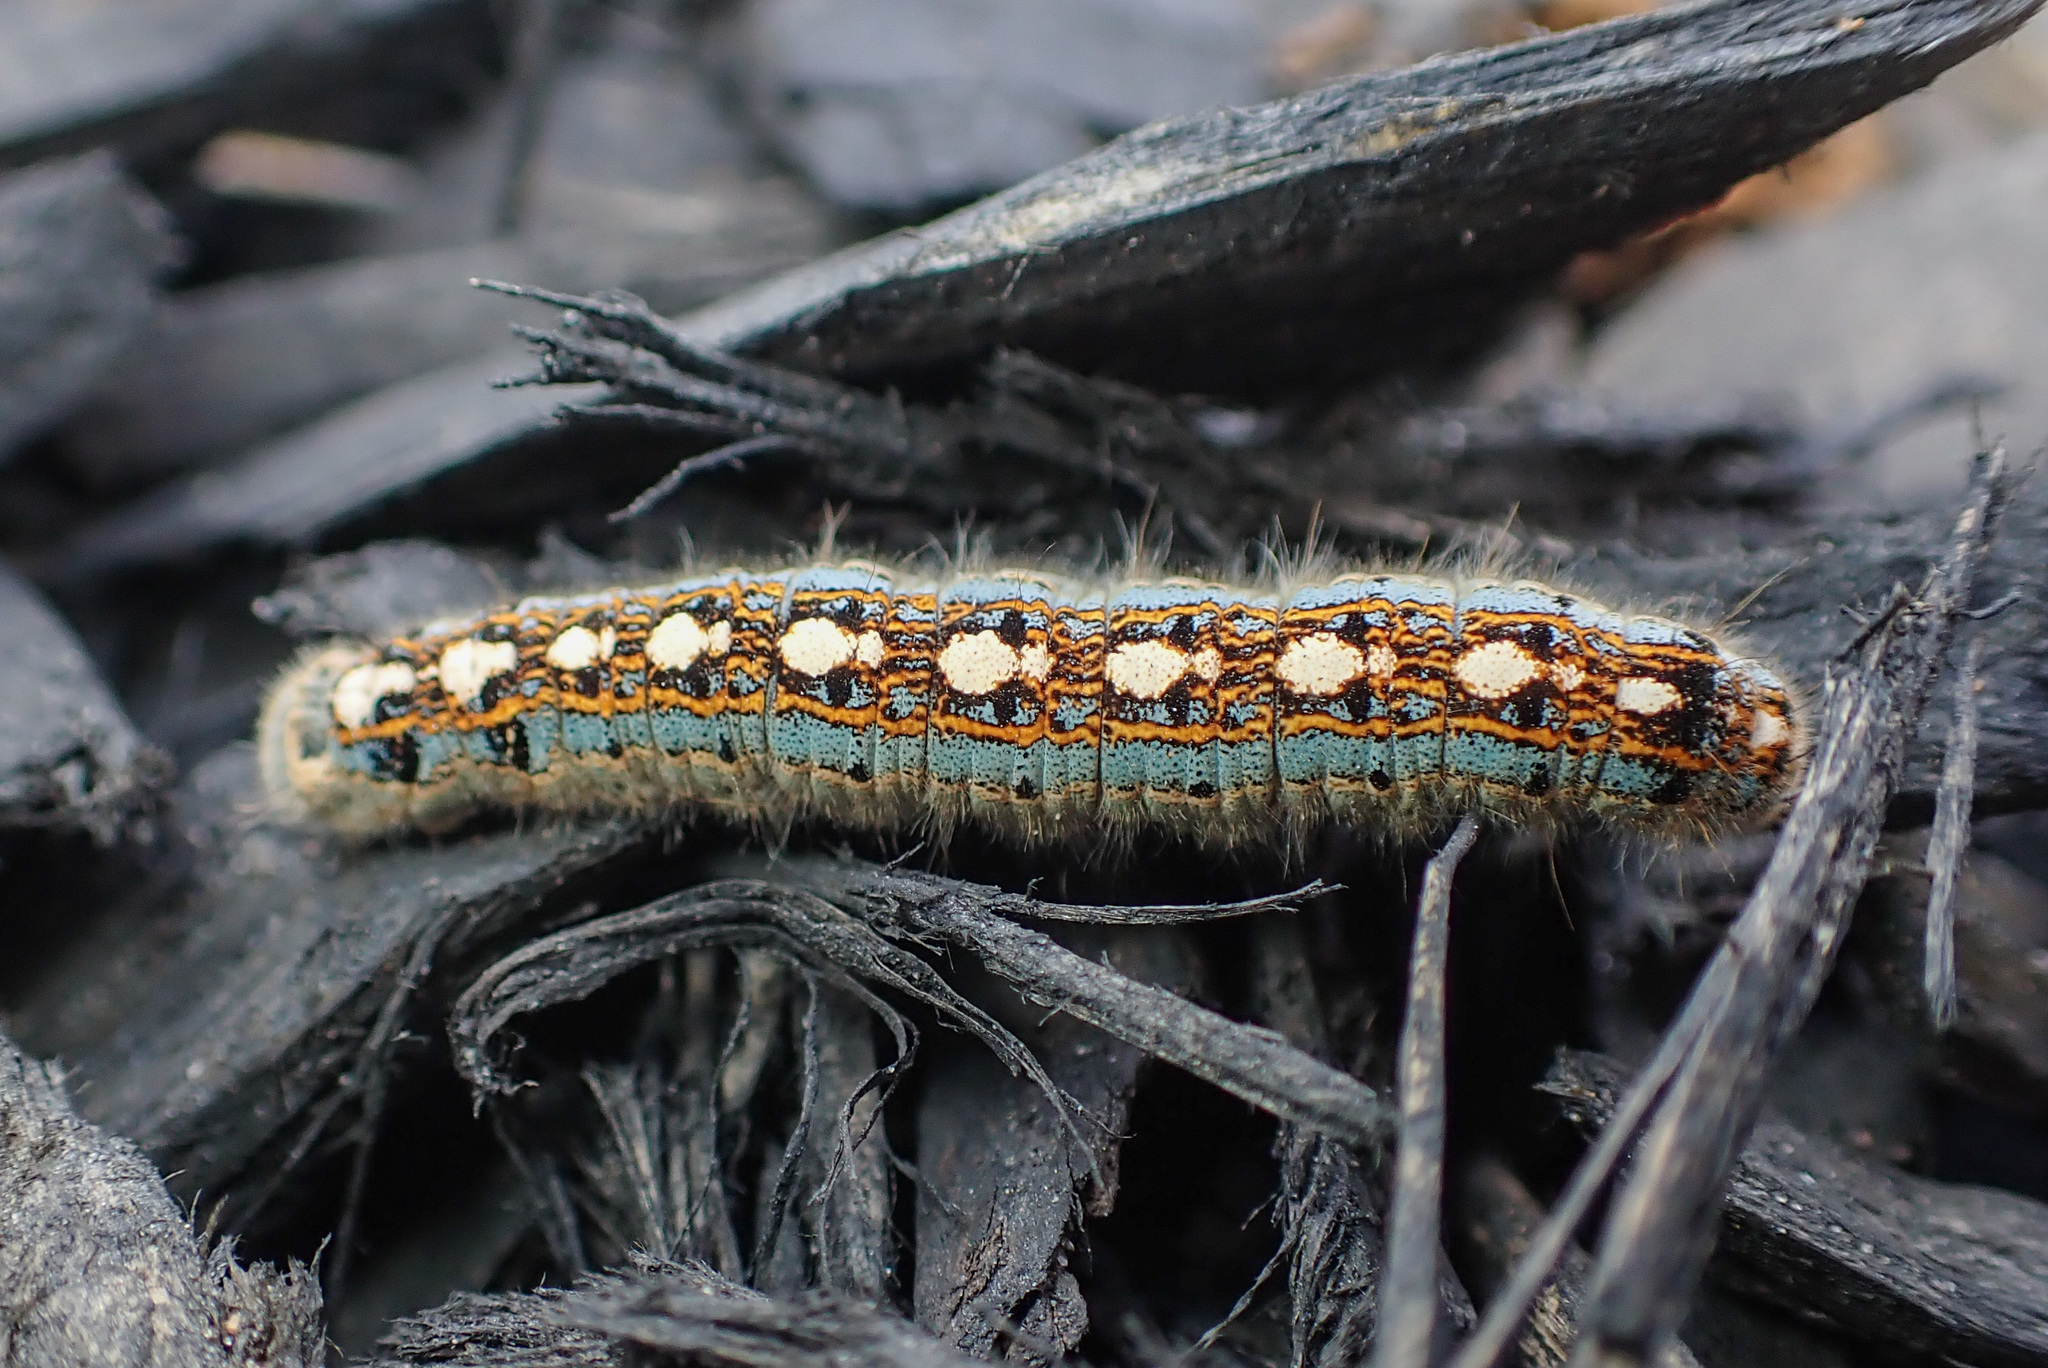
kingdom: Animalia
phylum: Arthropoda
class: Insecta
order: Lepidoptera
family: Lasiocampidae
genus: Malacosoma
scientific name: Malacosoma disstria
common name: Forest tent caterpillar
